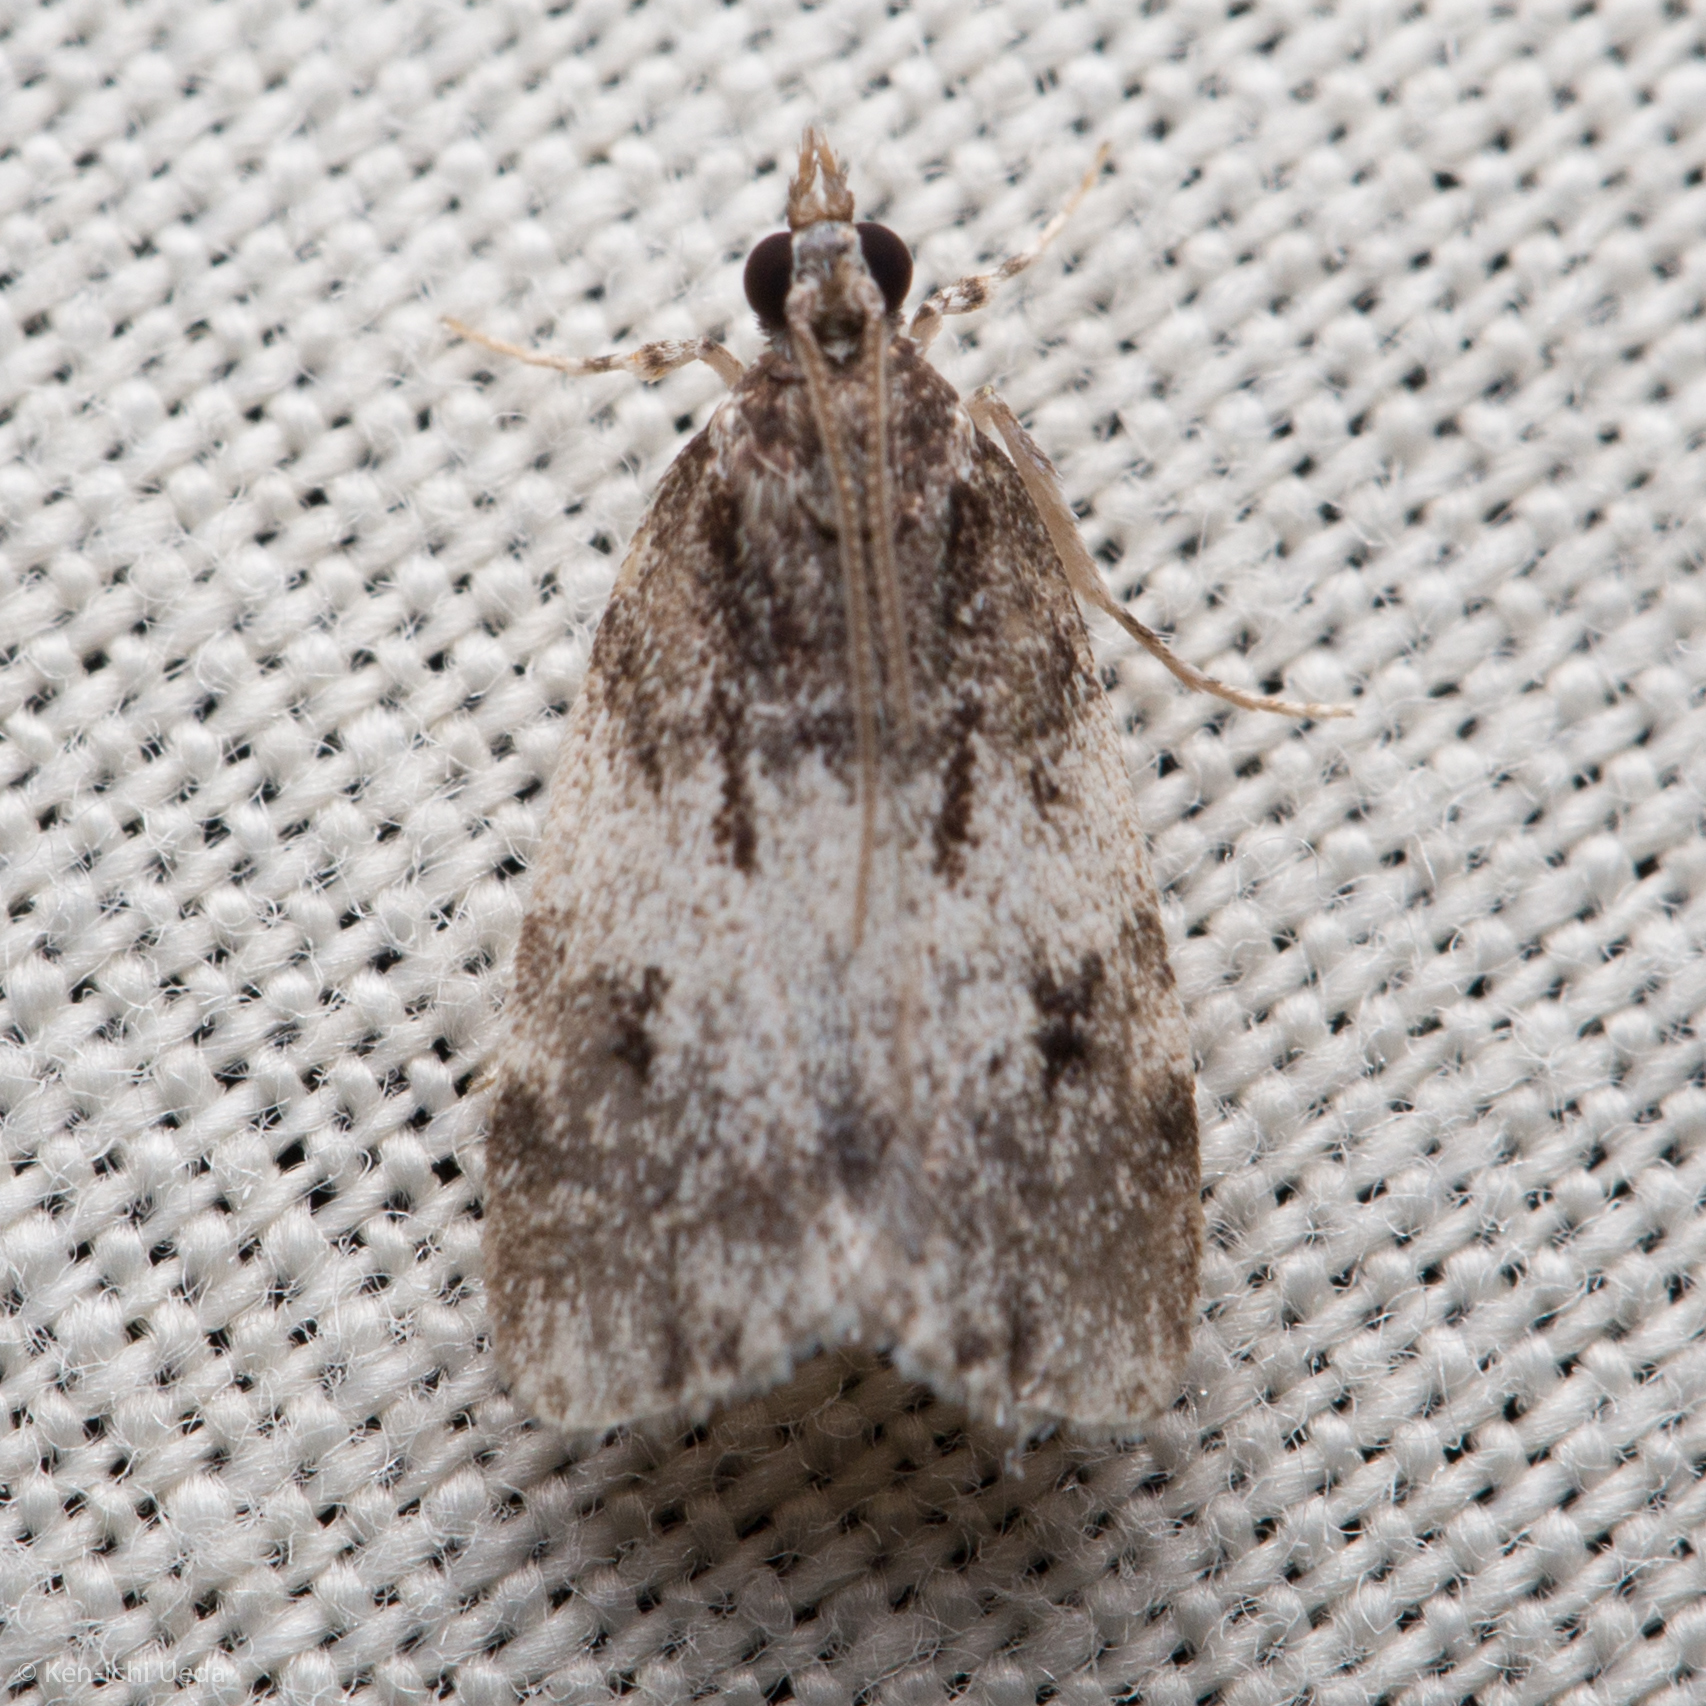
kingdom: Animalia
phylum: Arthropoda
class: Insecta
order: Lepidoptera
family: Crambidae
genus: Scoparia
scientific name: Scoparia cinereomedia
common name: Sooty scoparia moth
